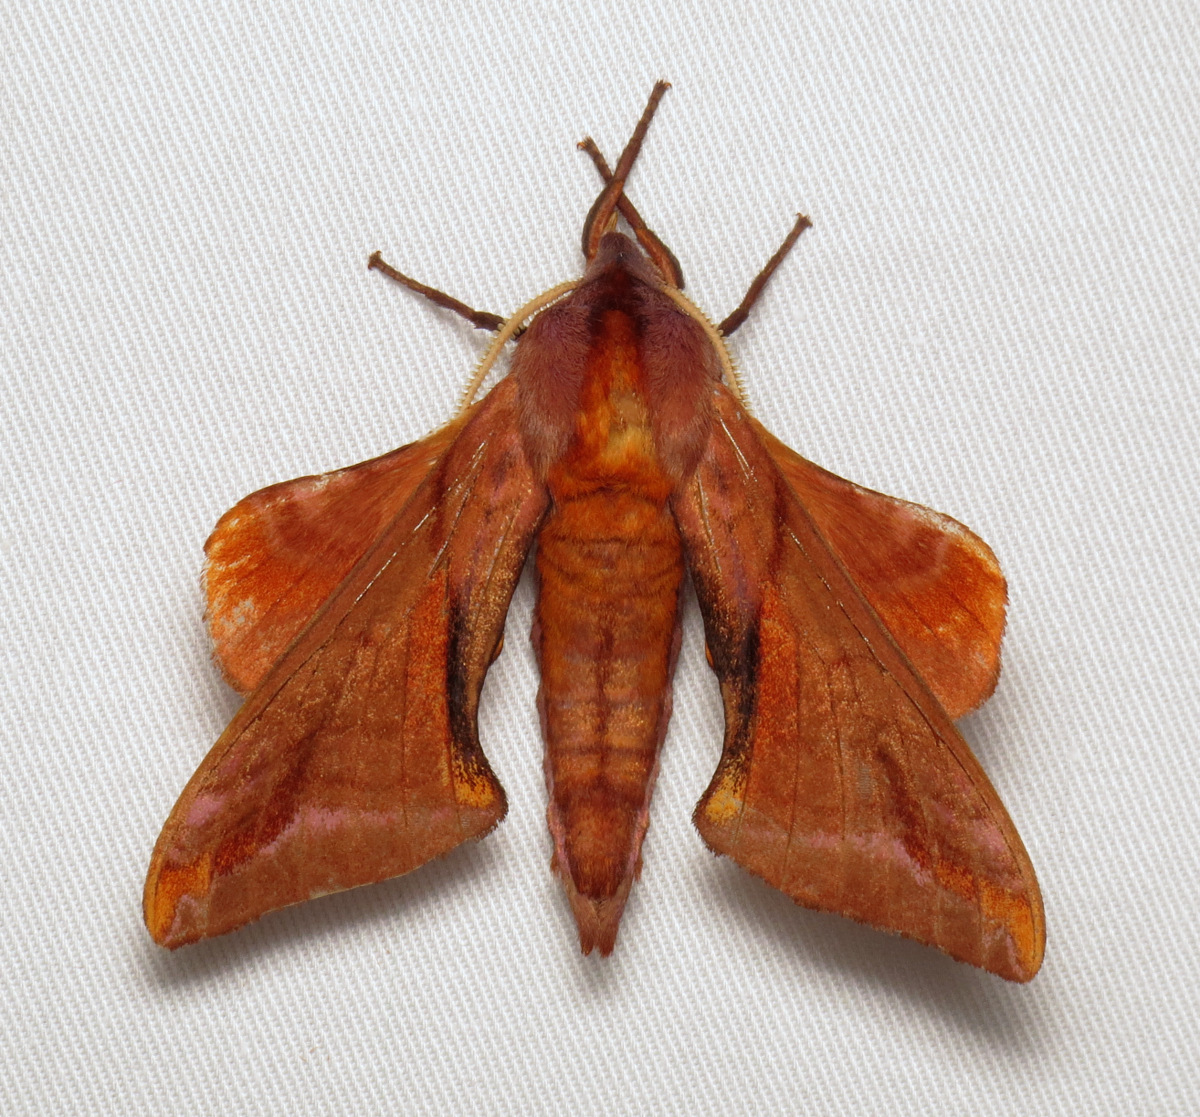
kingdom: Animalia
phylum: Arthropoda
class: Insecta
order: Lepidoptera
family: Sphingidae
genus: Paonias
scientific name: Paonias astylus
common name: Huckleberry sphinx
